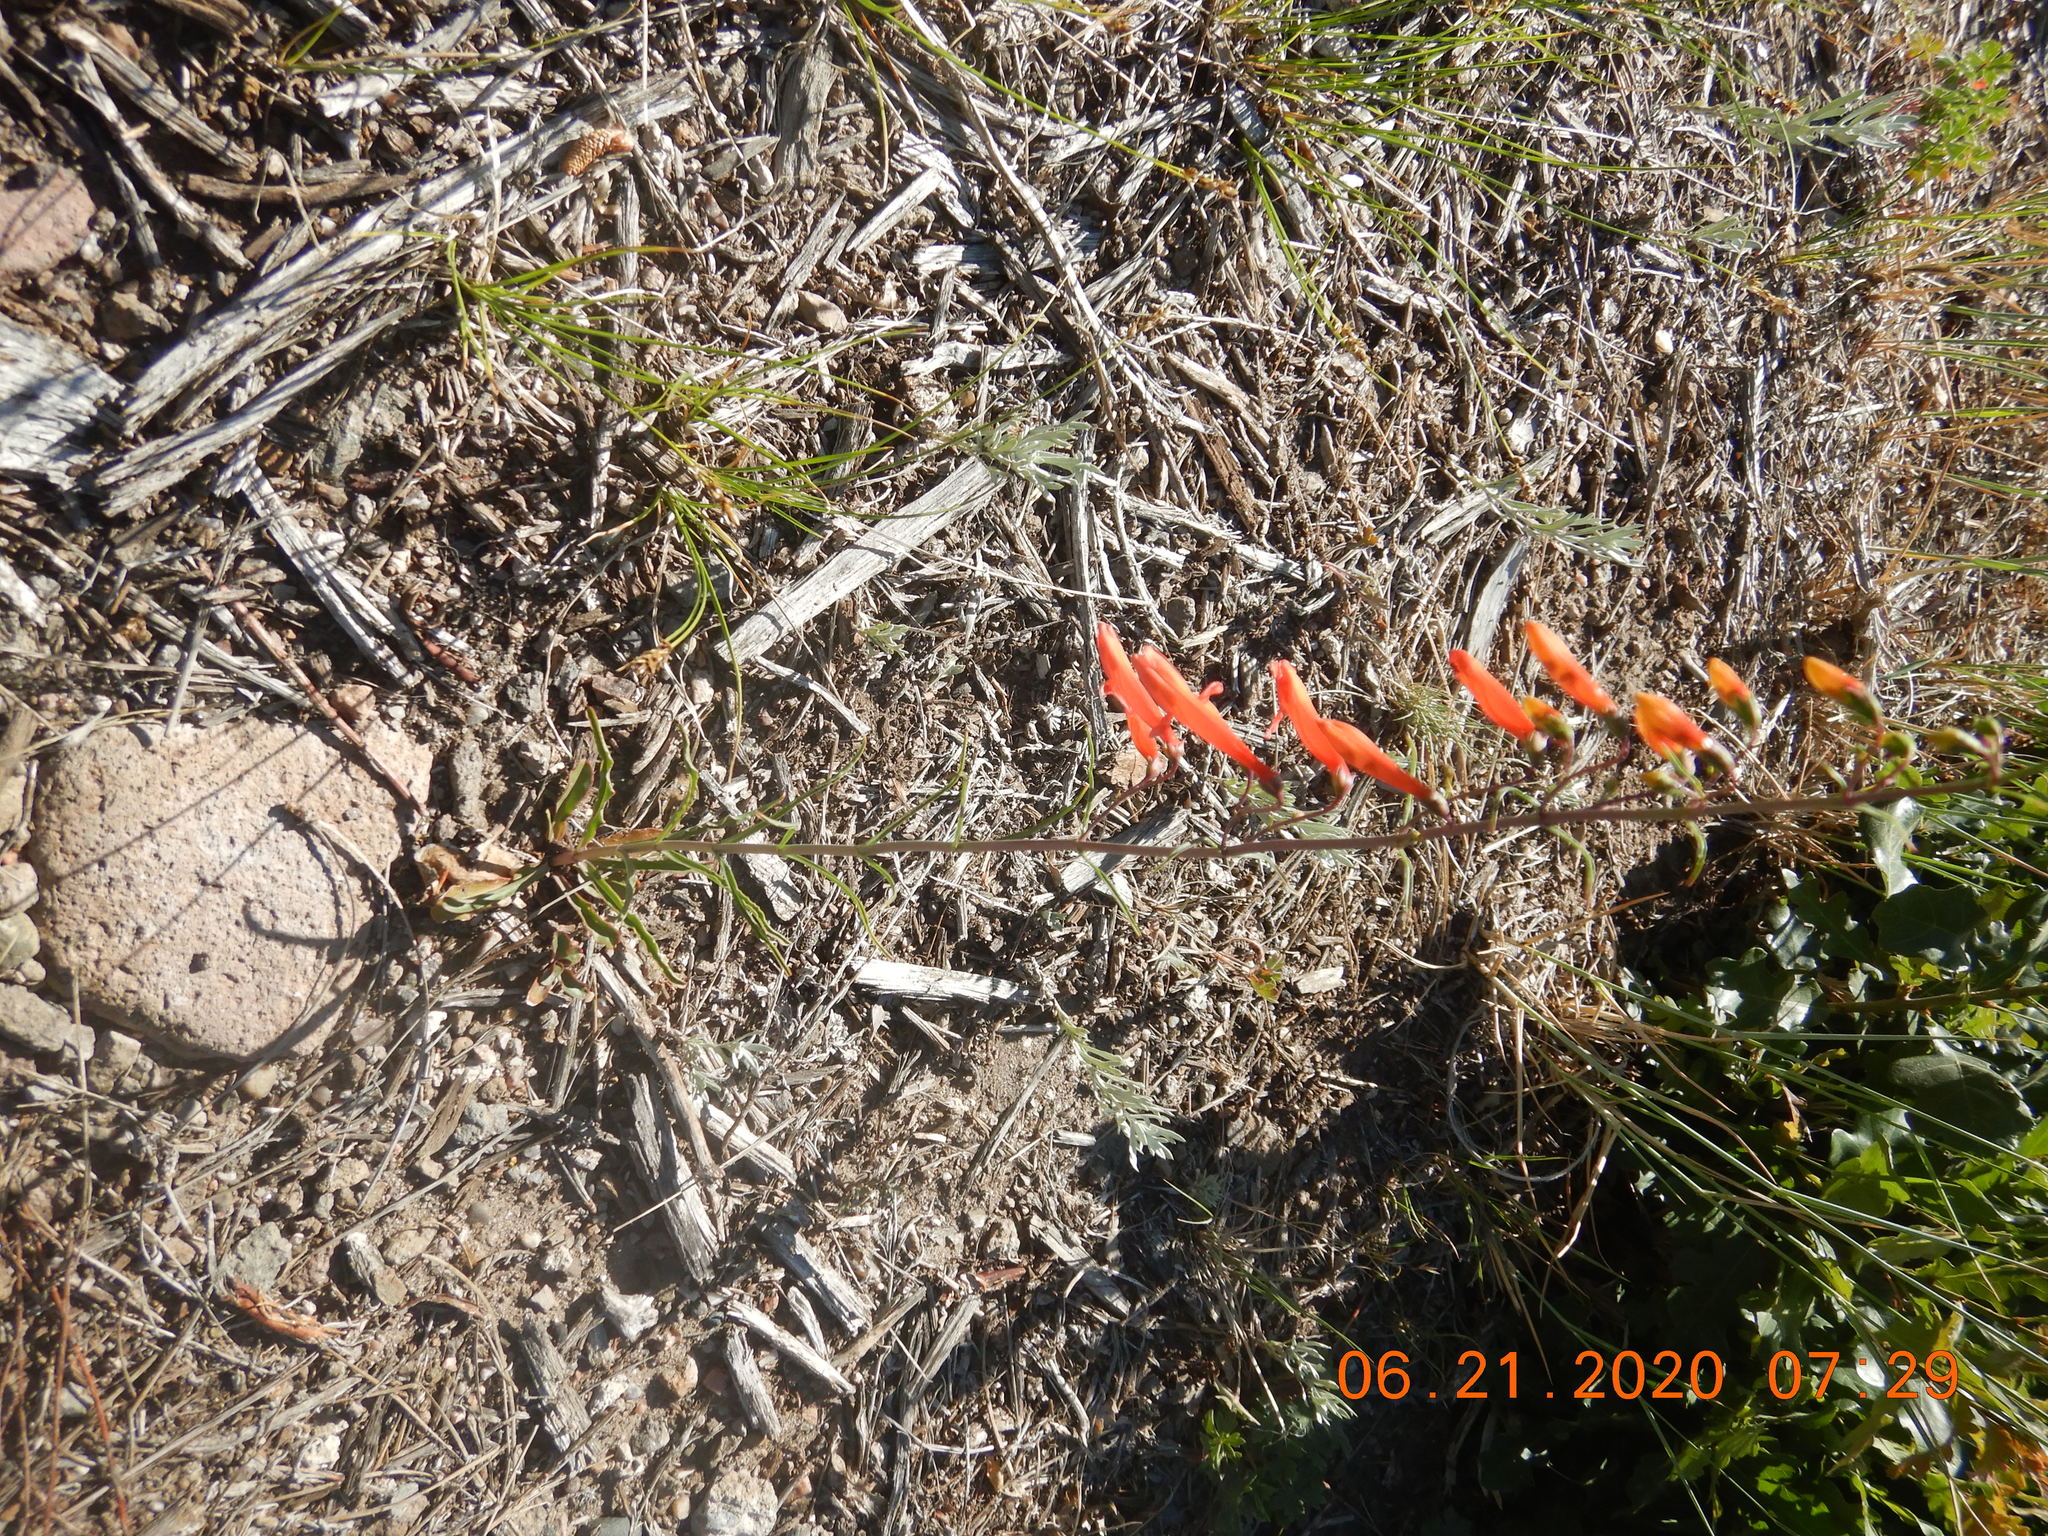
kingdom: Plantae
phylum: Tracheophyta
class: Magnoliopsida
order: Lamiales
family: Plantaginaceae
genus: Penstemon
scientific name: Penstemon barbatus
